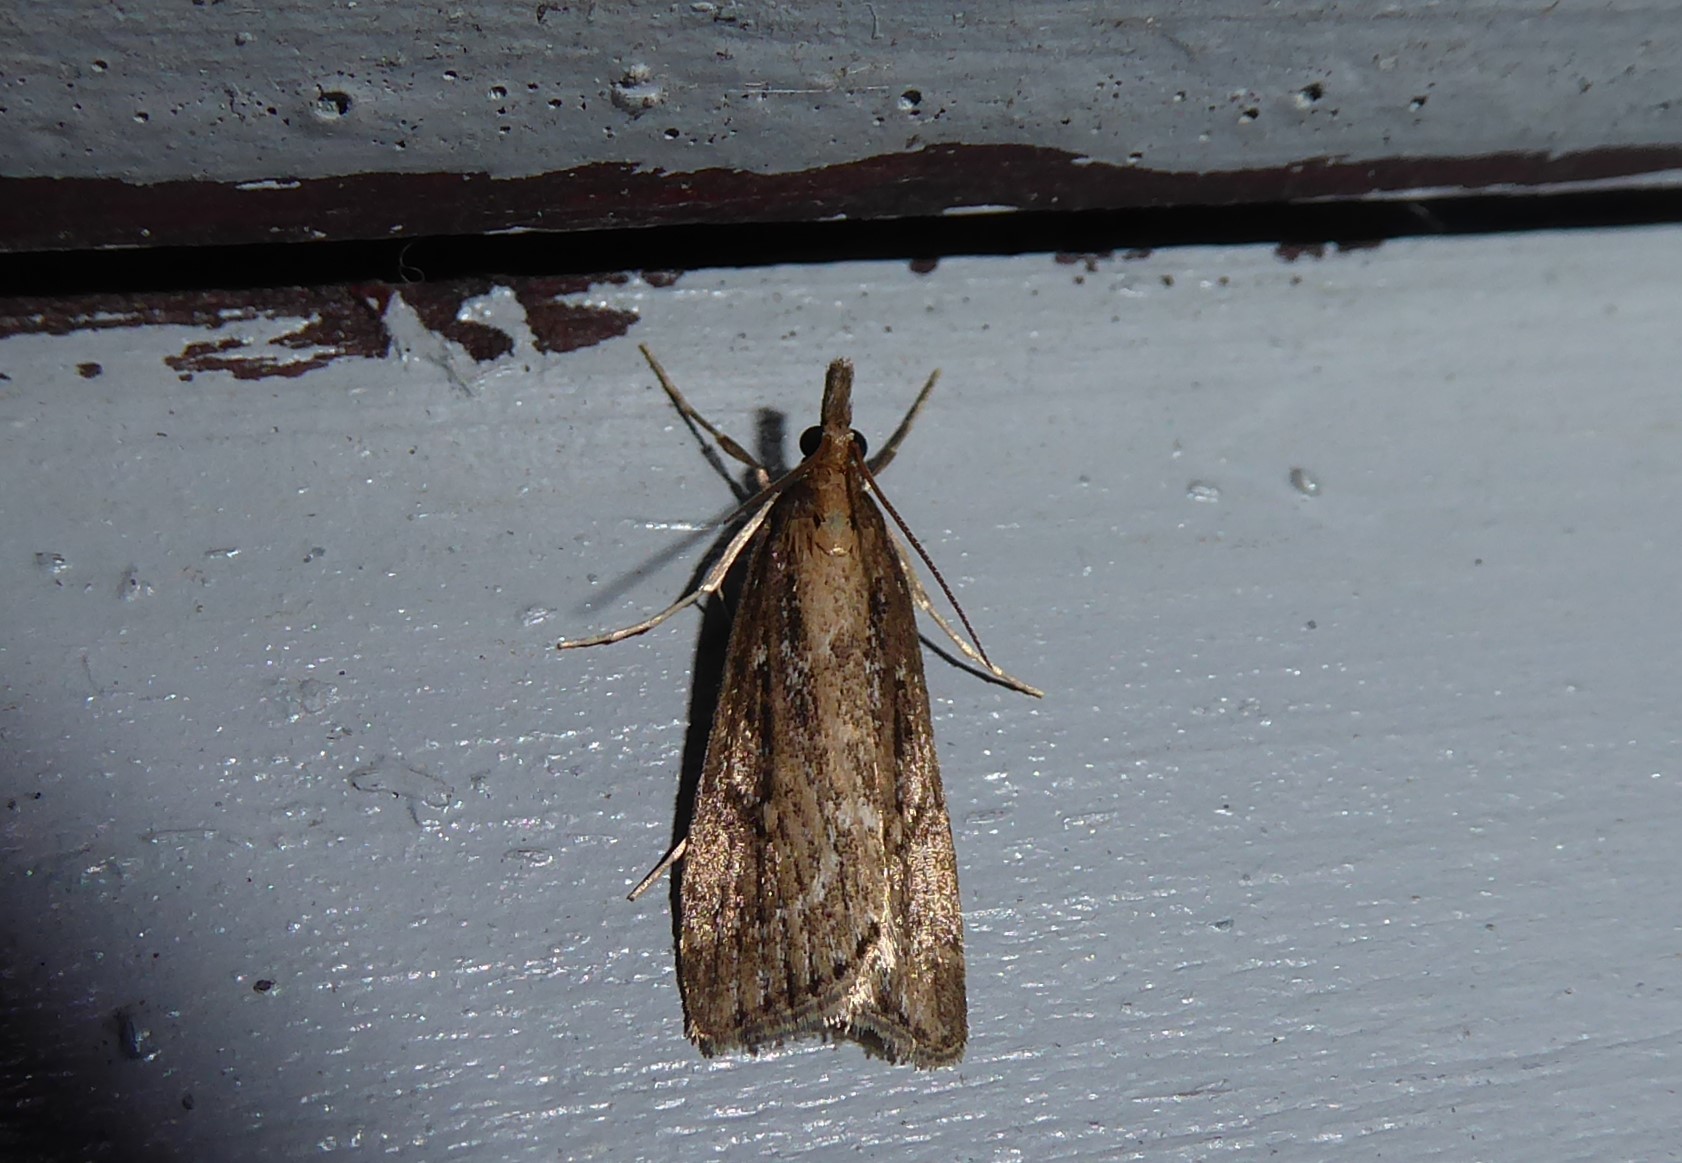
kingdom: Animalia
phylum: Arthropoda
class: Insecta
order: Lepidoptera
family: Crambidae
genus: Eudonia
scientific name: Eudonia octophora
